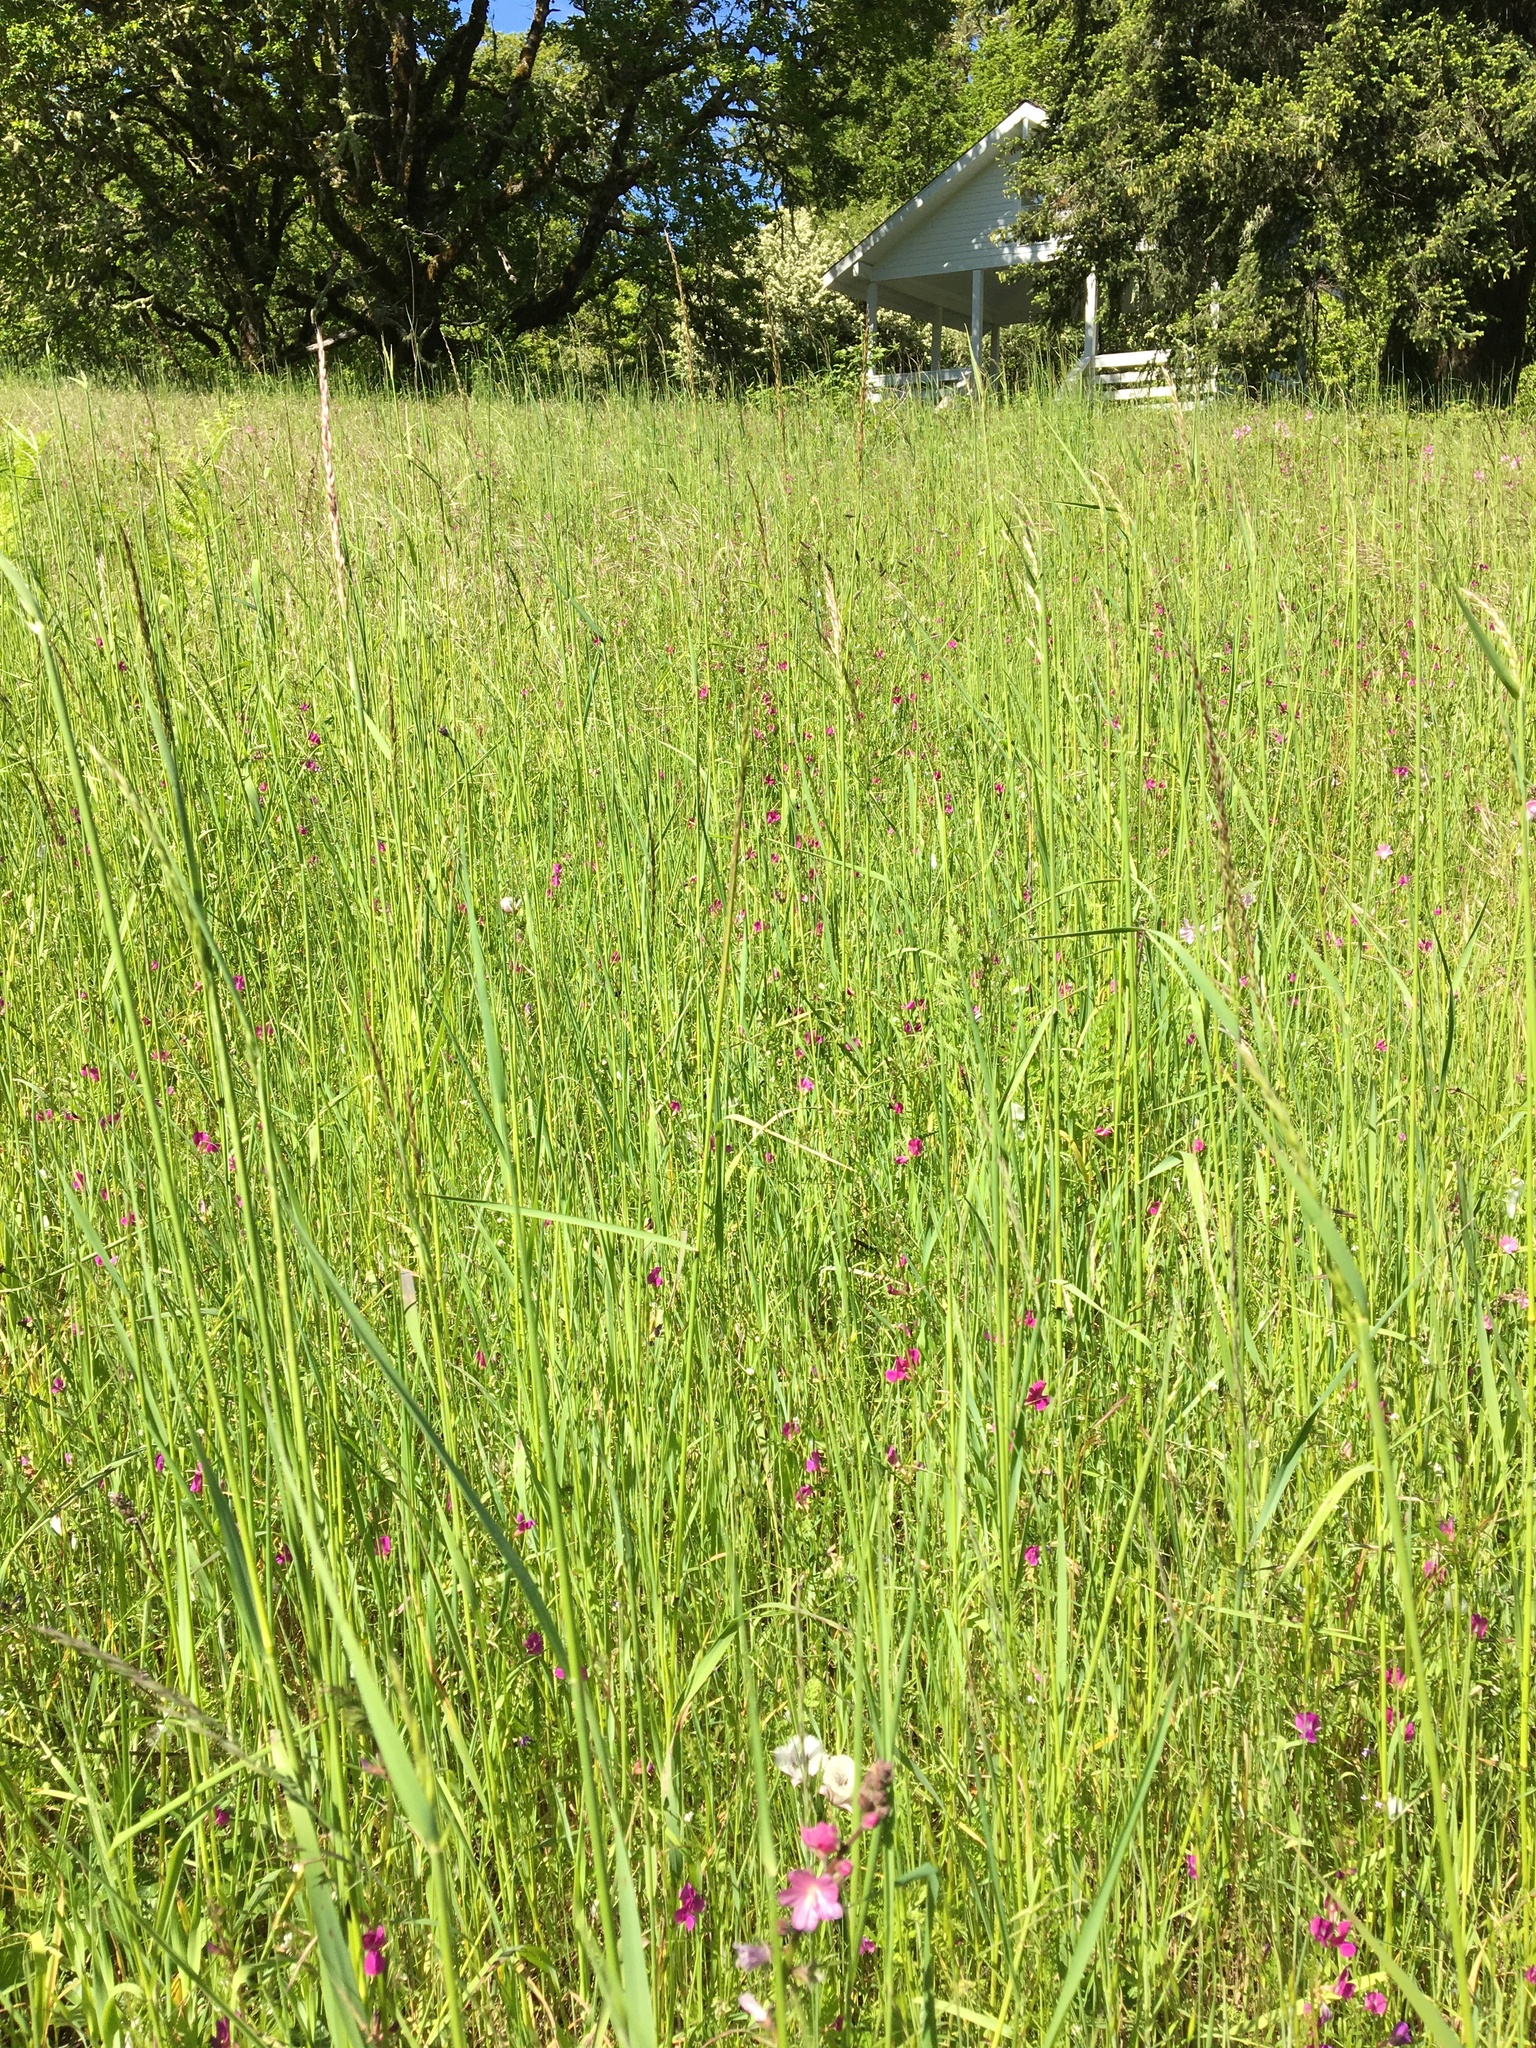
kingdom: Plantae
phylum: Tracheophyta
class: Liliopsida
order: Liliales
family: Liliaceae
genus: Calochortus
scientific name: Calochortus tolmiei
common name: Pussy-ears
